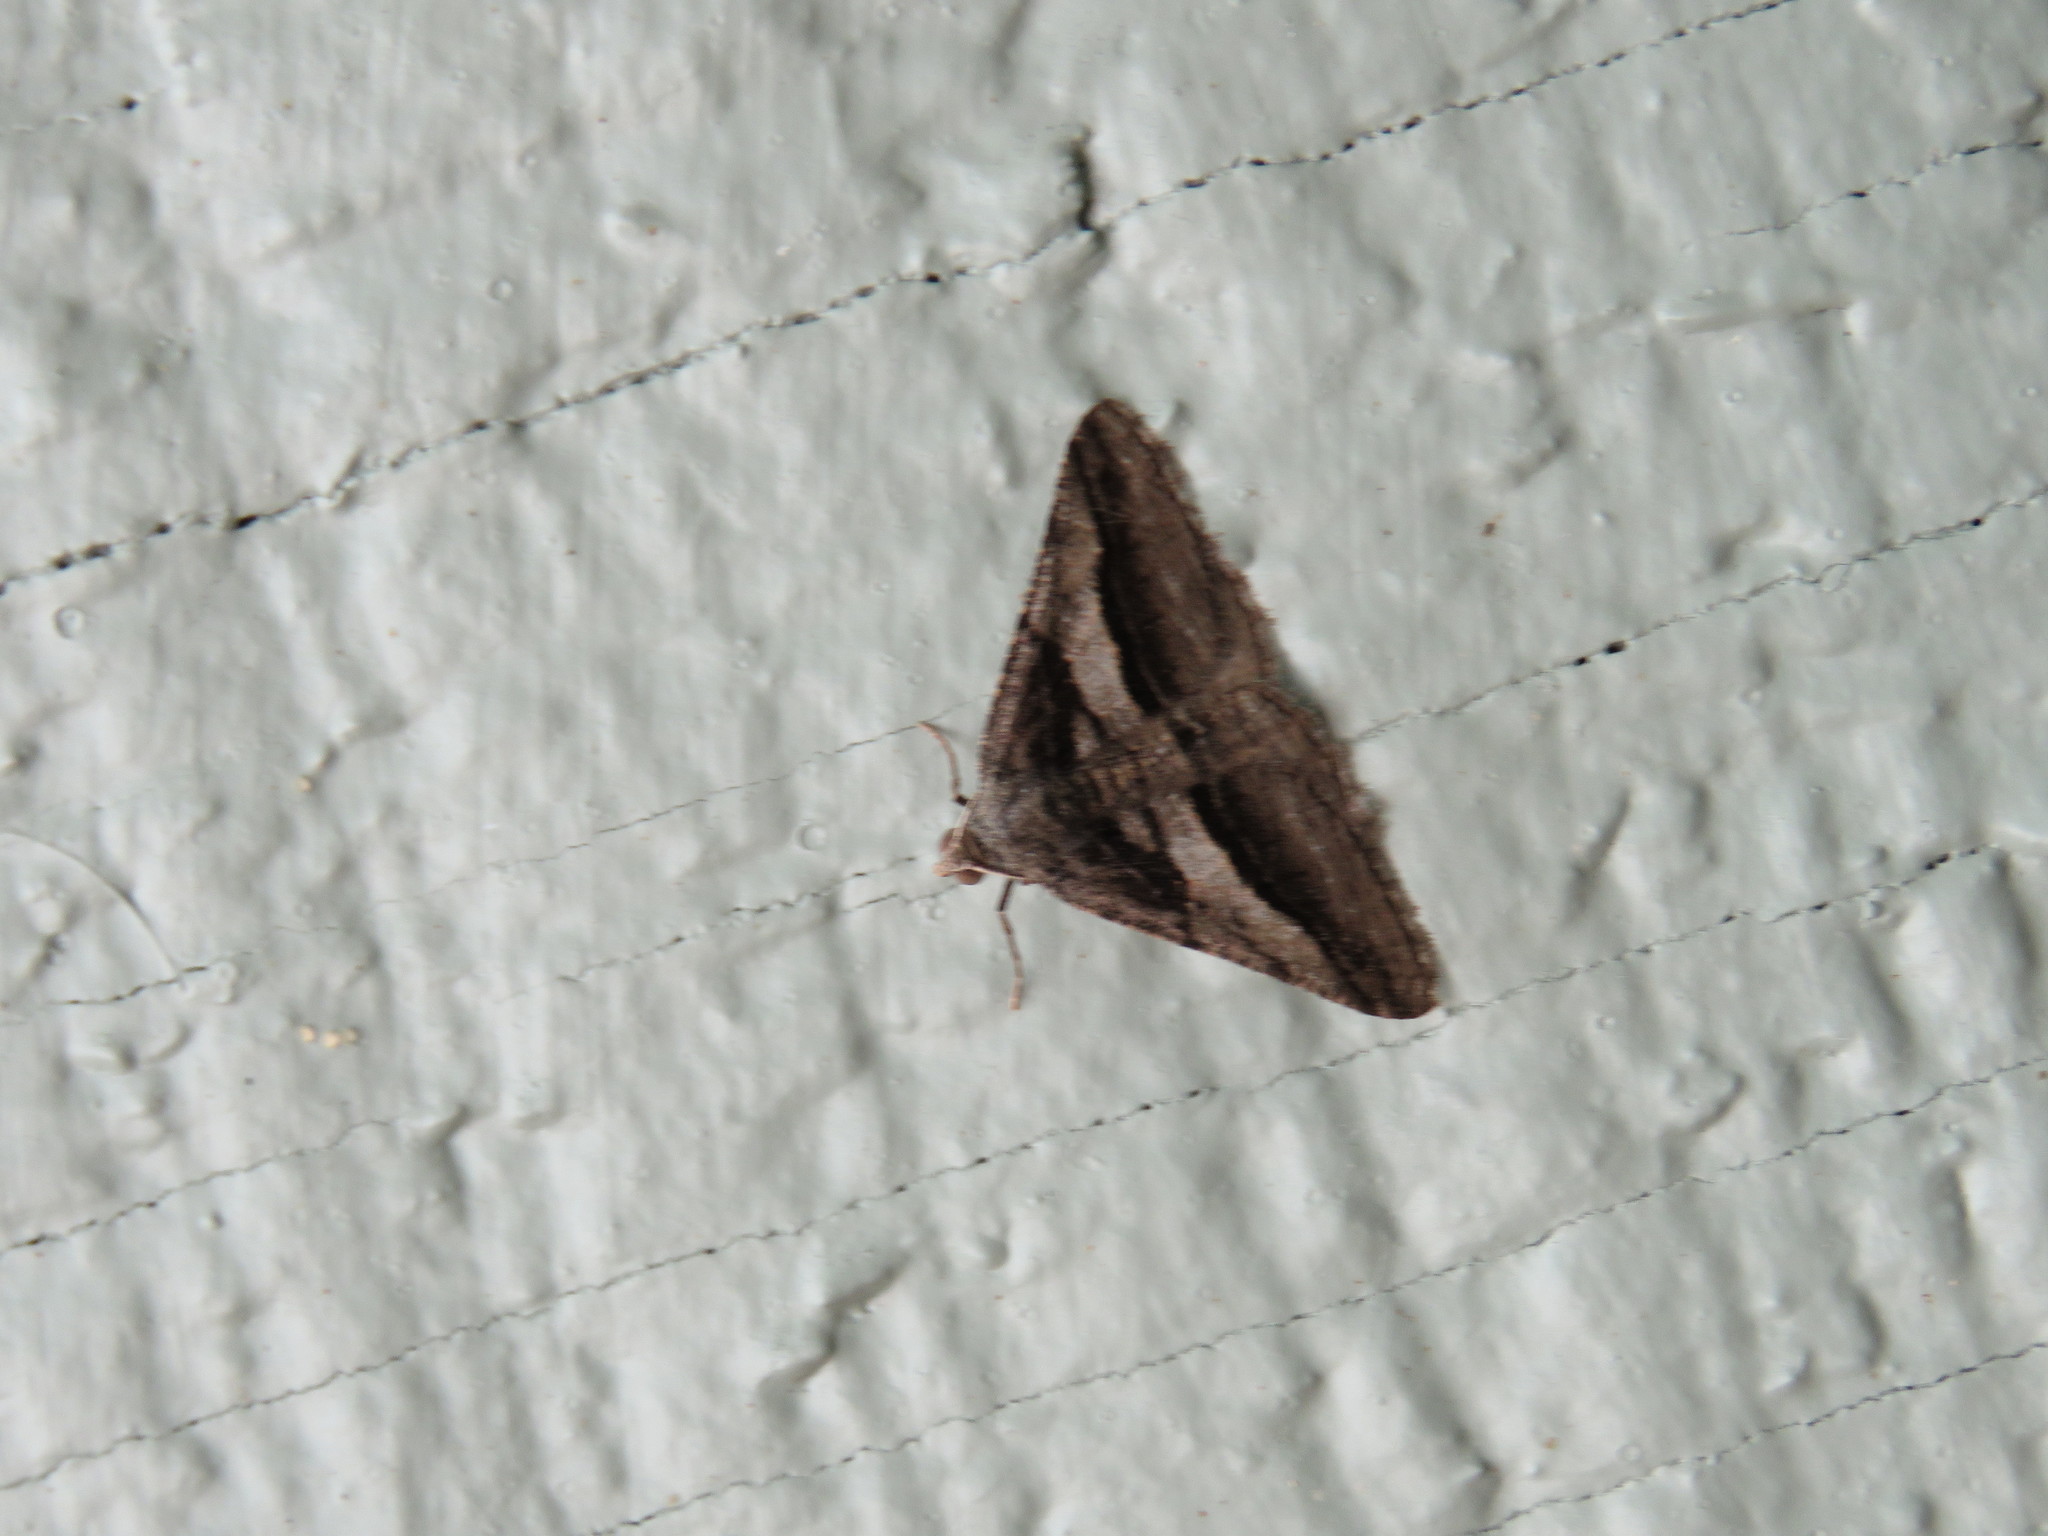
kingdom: Animalia
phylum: Arthropoda
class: Insecta
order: Lepidoptera
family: Geometridae
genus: Digrammia
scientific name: Digrammia atrofasciata
